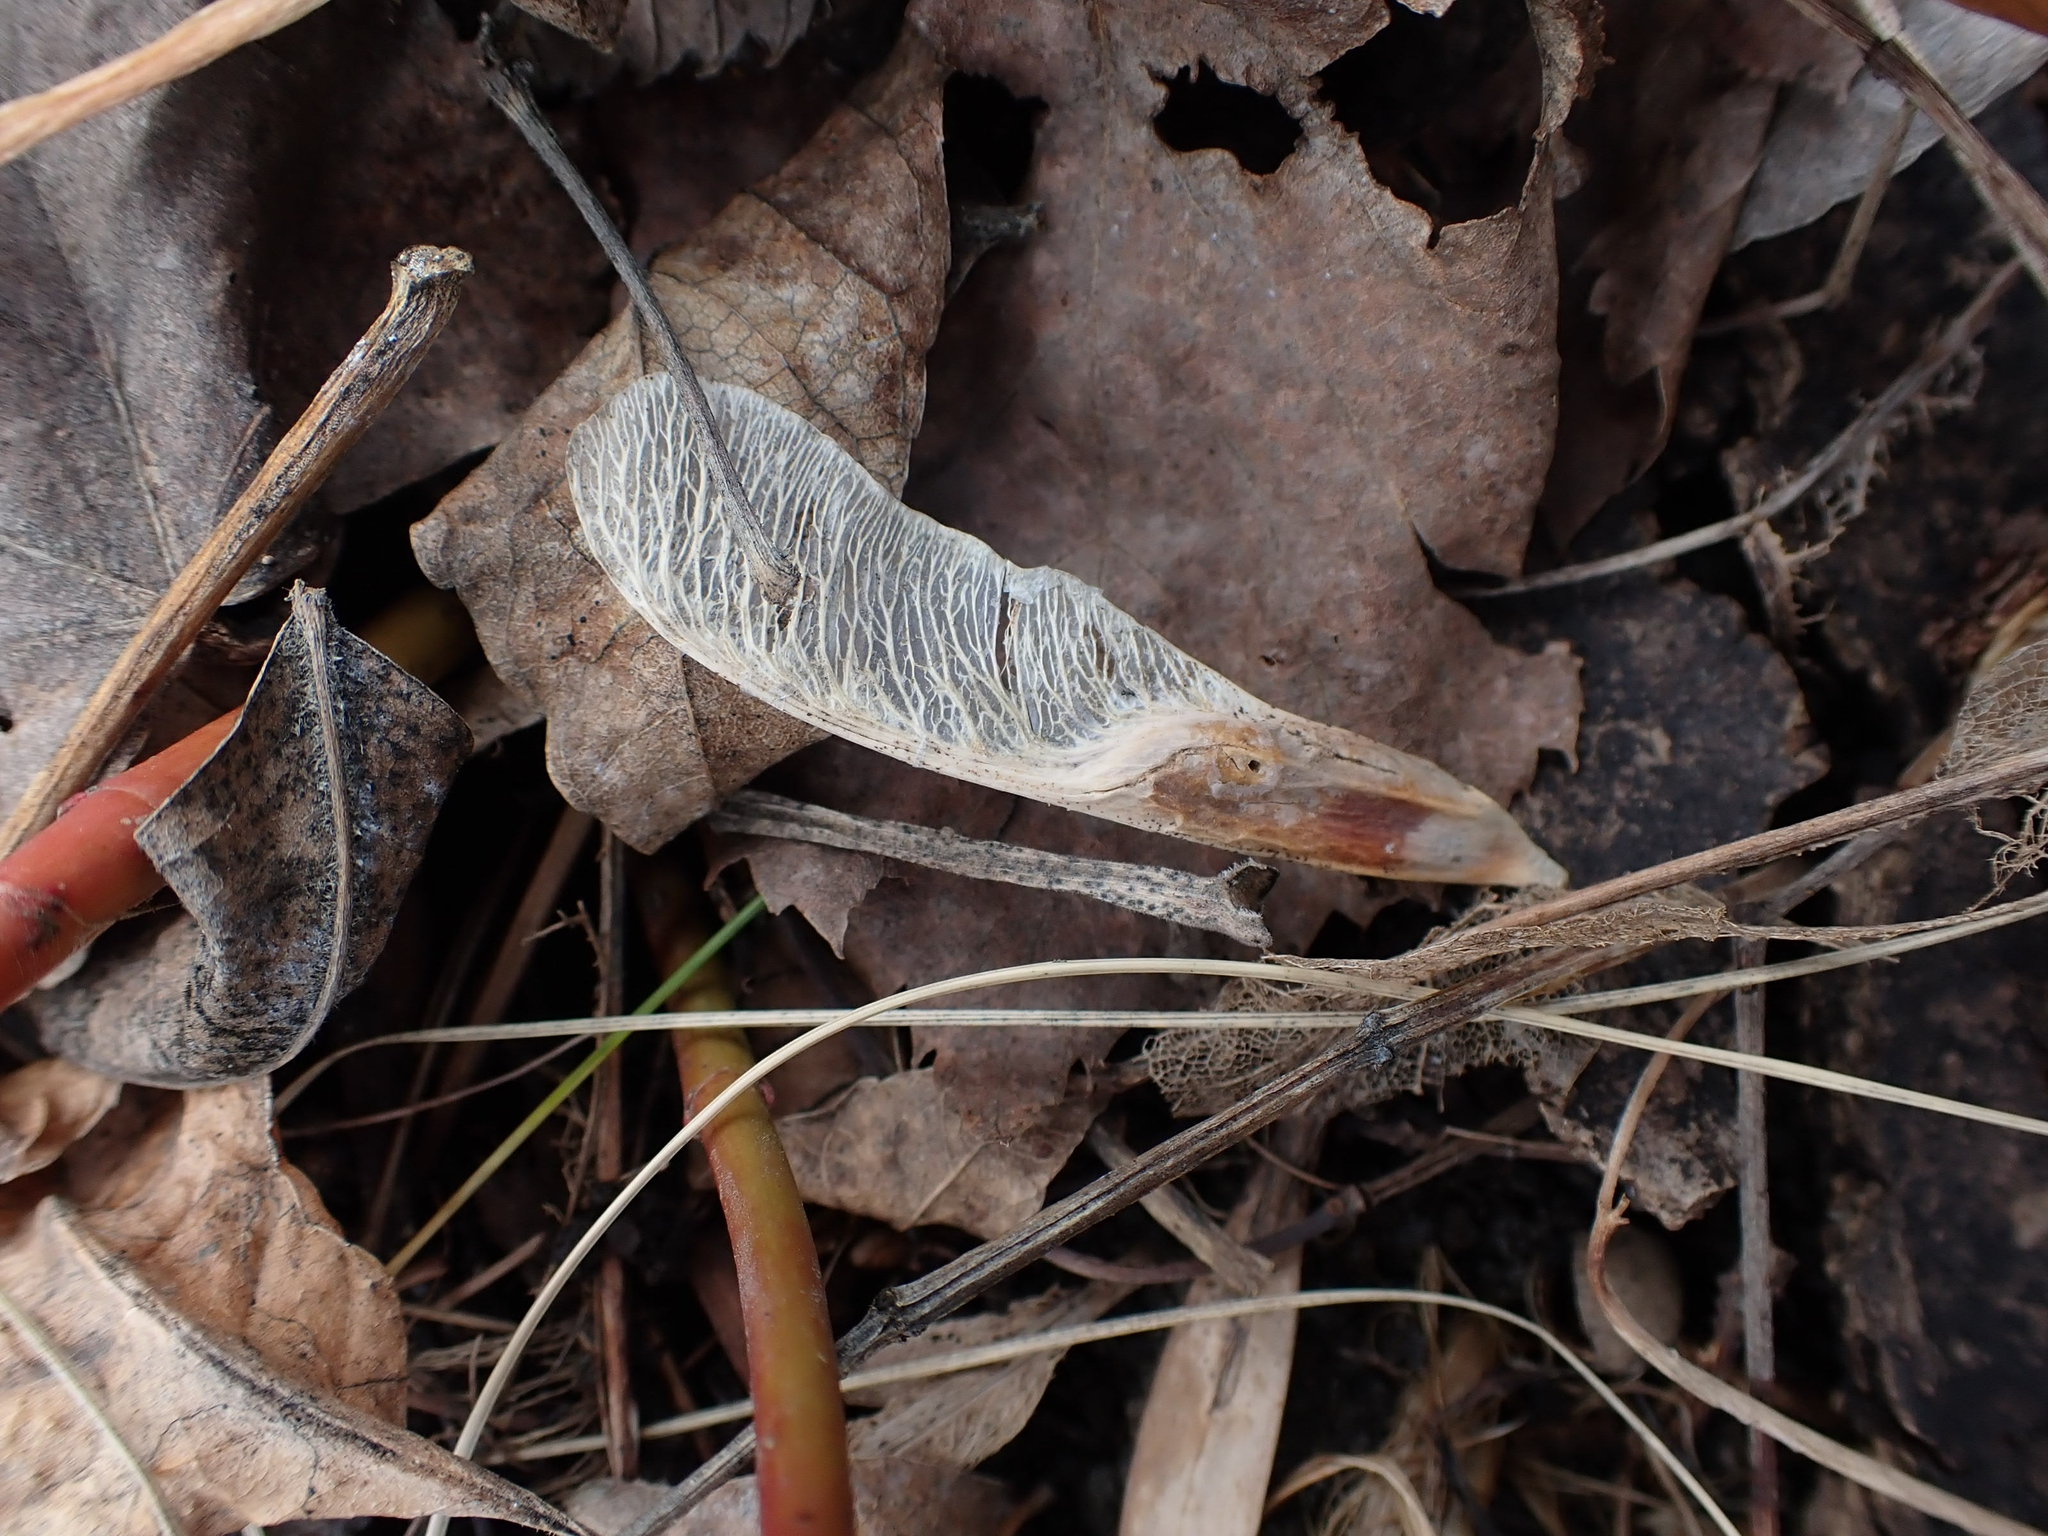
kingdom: Plantae
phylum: Tracheophyta
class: Magnoliopsida
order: Sapindales
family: Sapindaceae
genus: Acer
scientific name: Acer negundo
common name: Ashleaf maple
